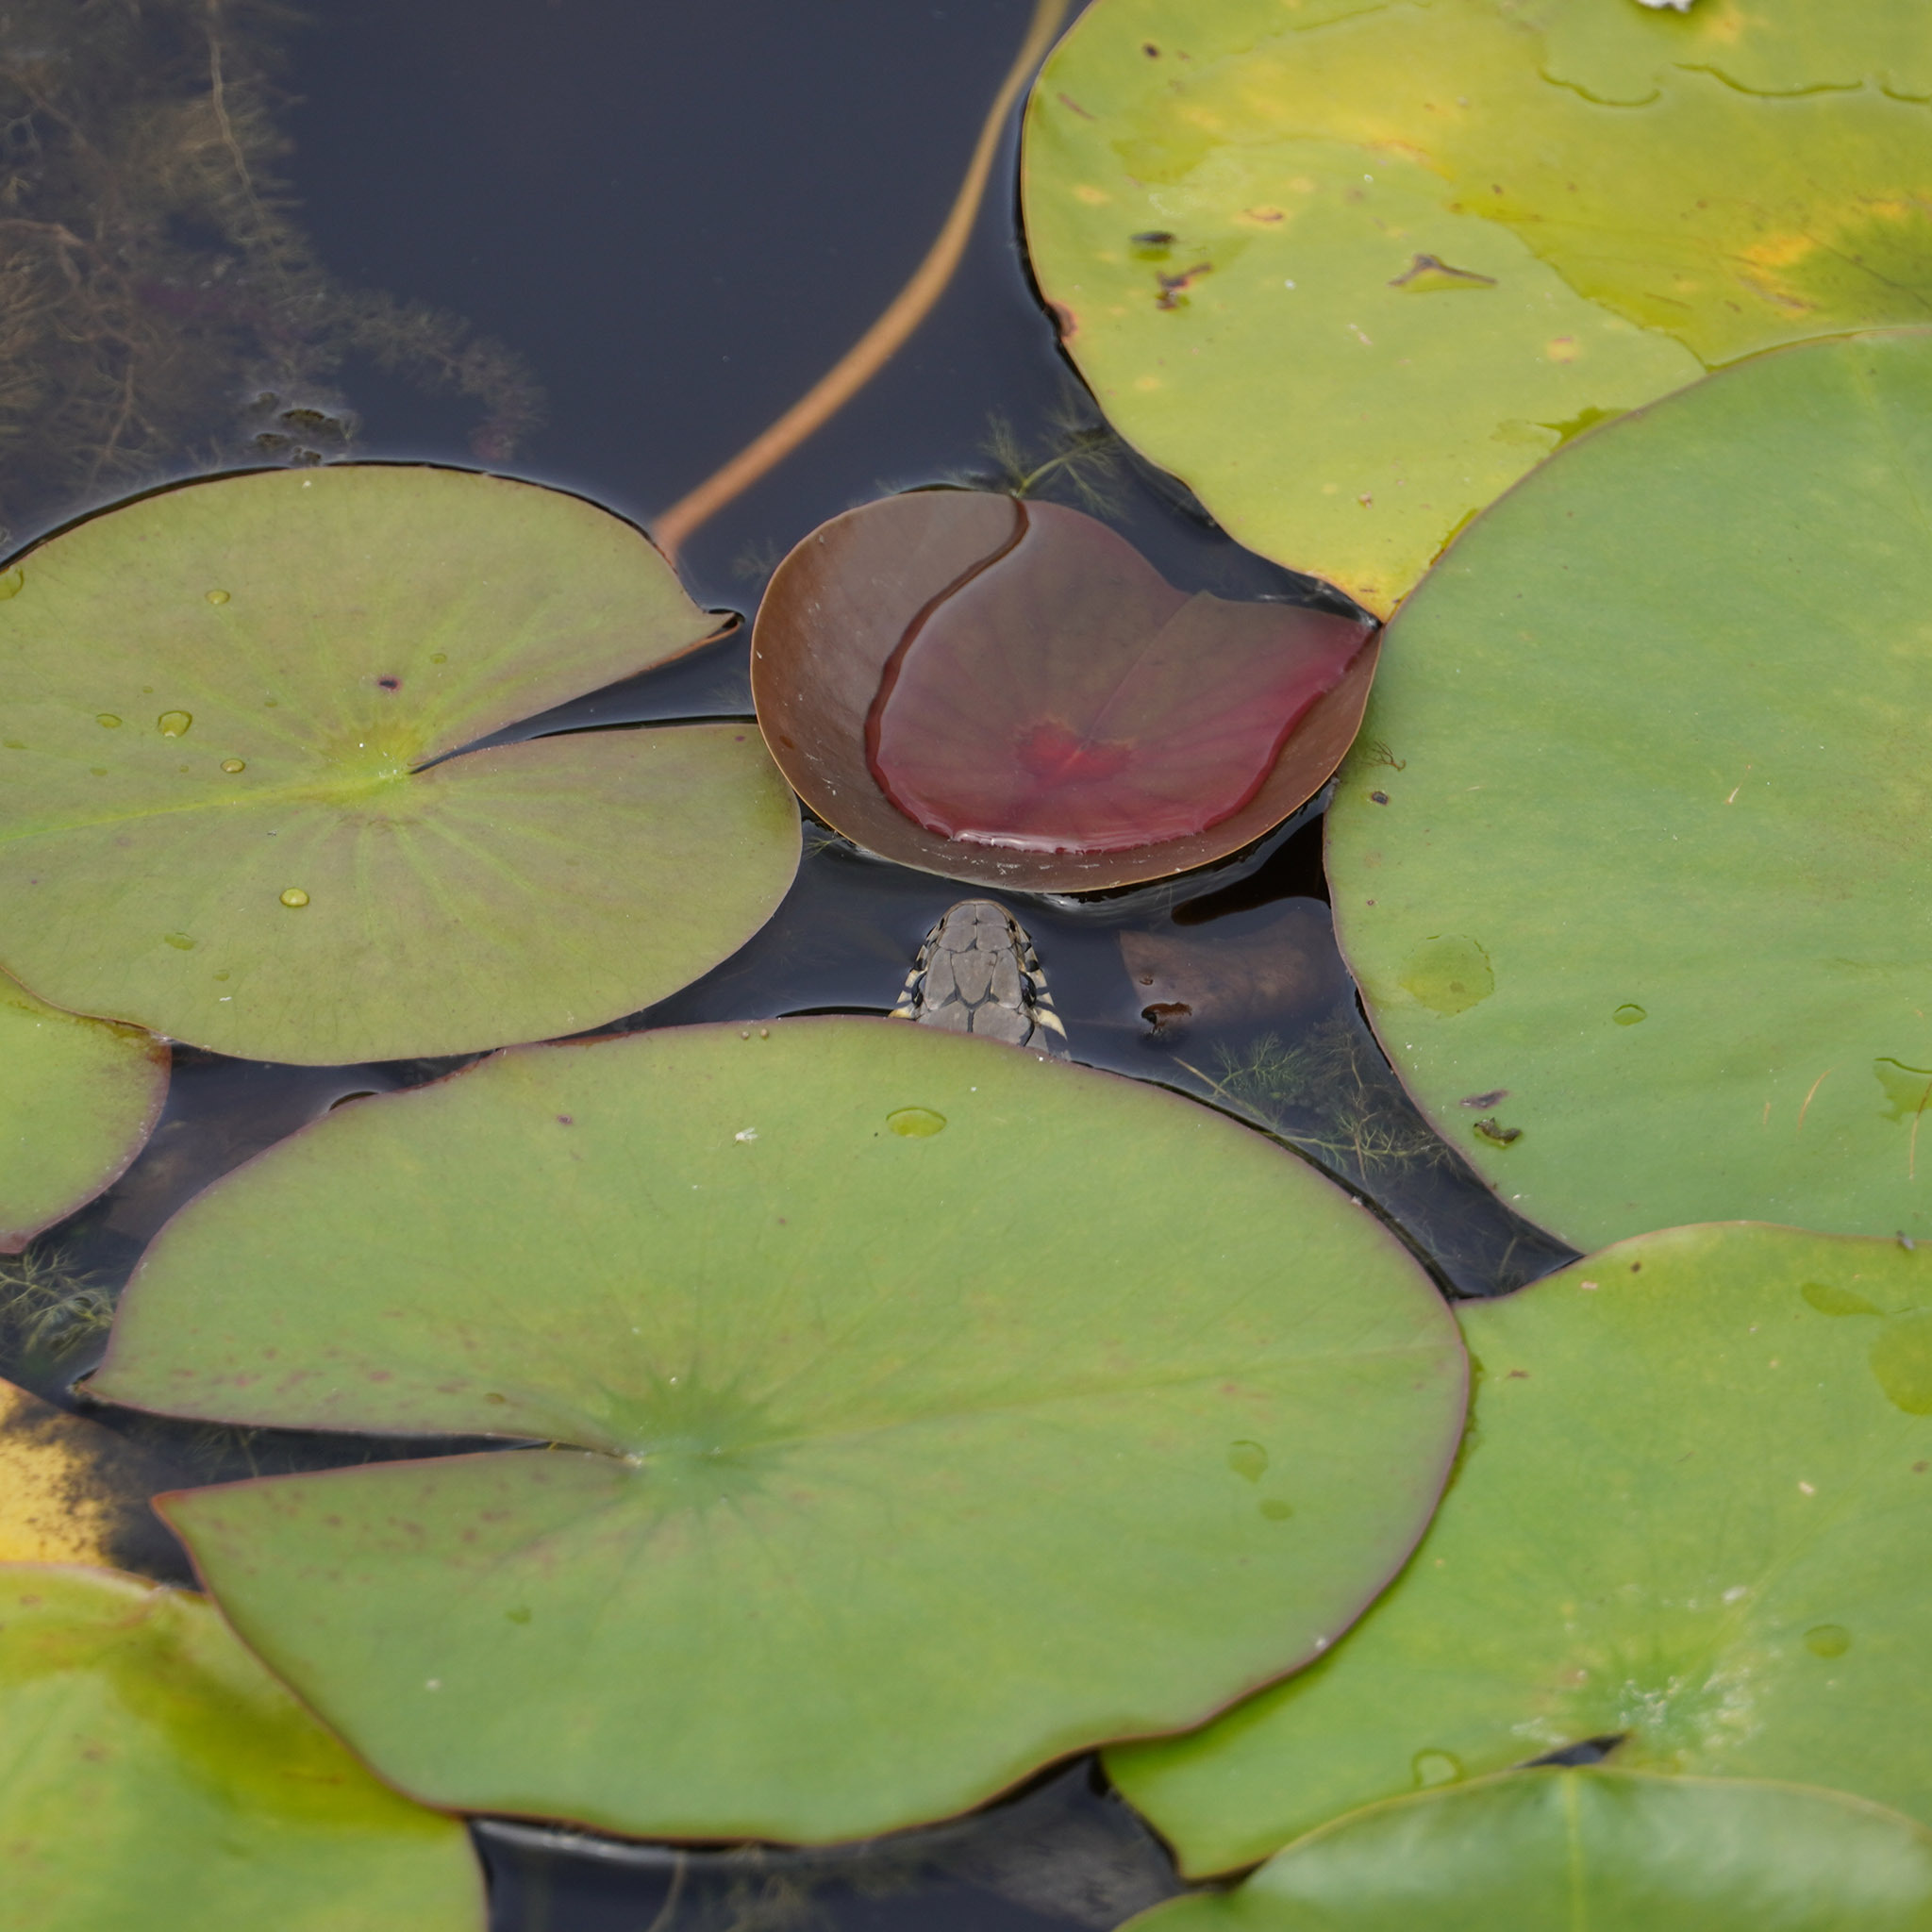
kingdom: Animalia
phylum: Chordata
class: Squamata
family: Colubridae
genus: Natrix
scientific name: Natrix natrix
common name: Grass snake
